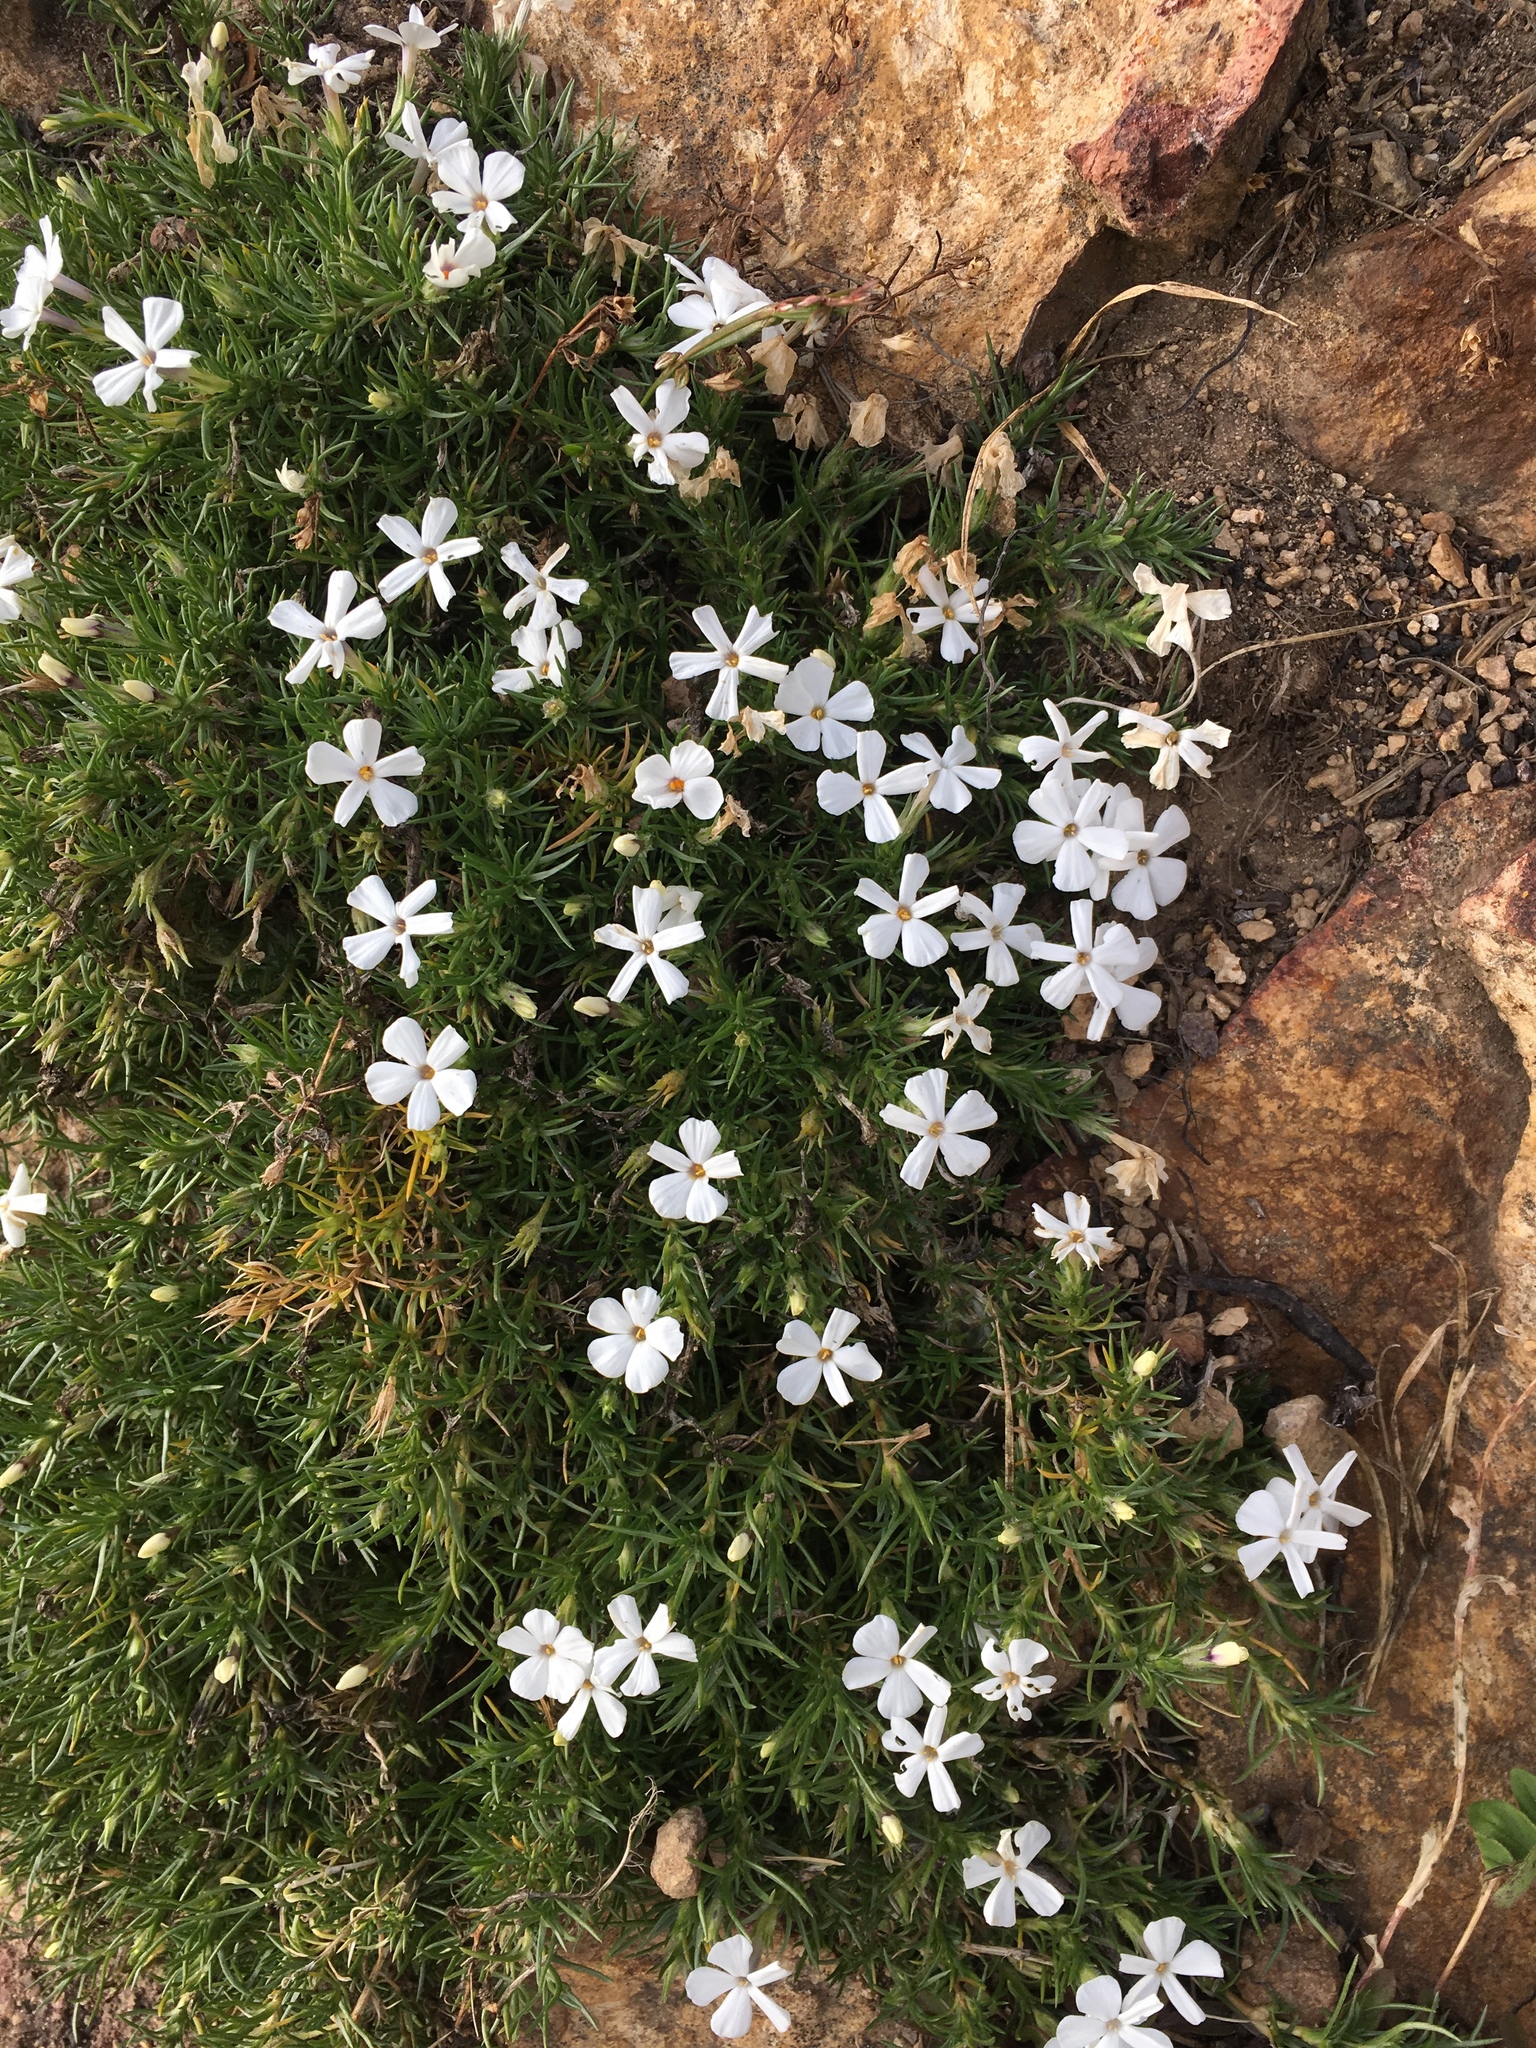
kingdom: Plantae
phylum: Tracheophyta
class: Magnoliopsida
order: Ericales
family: Polemoniaceae
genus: Phlox
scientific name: Phlox diffusa
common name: Mat phlox
